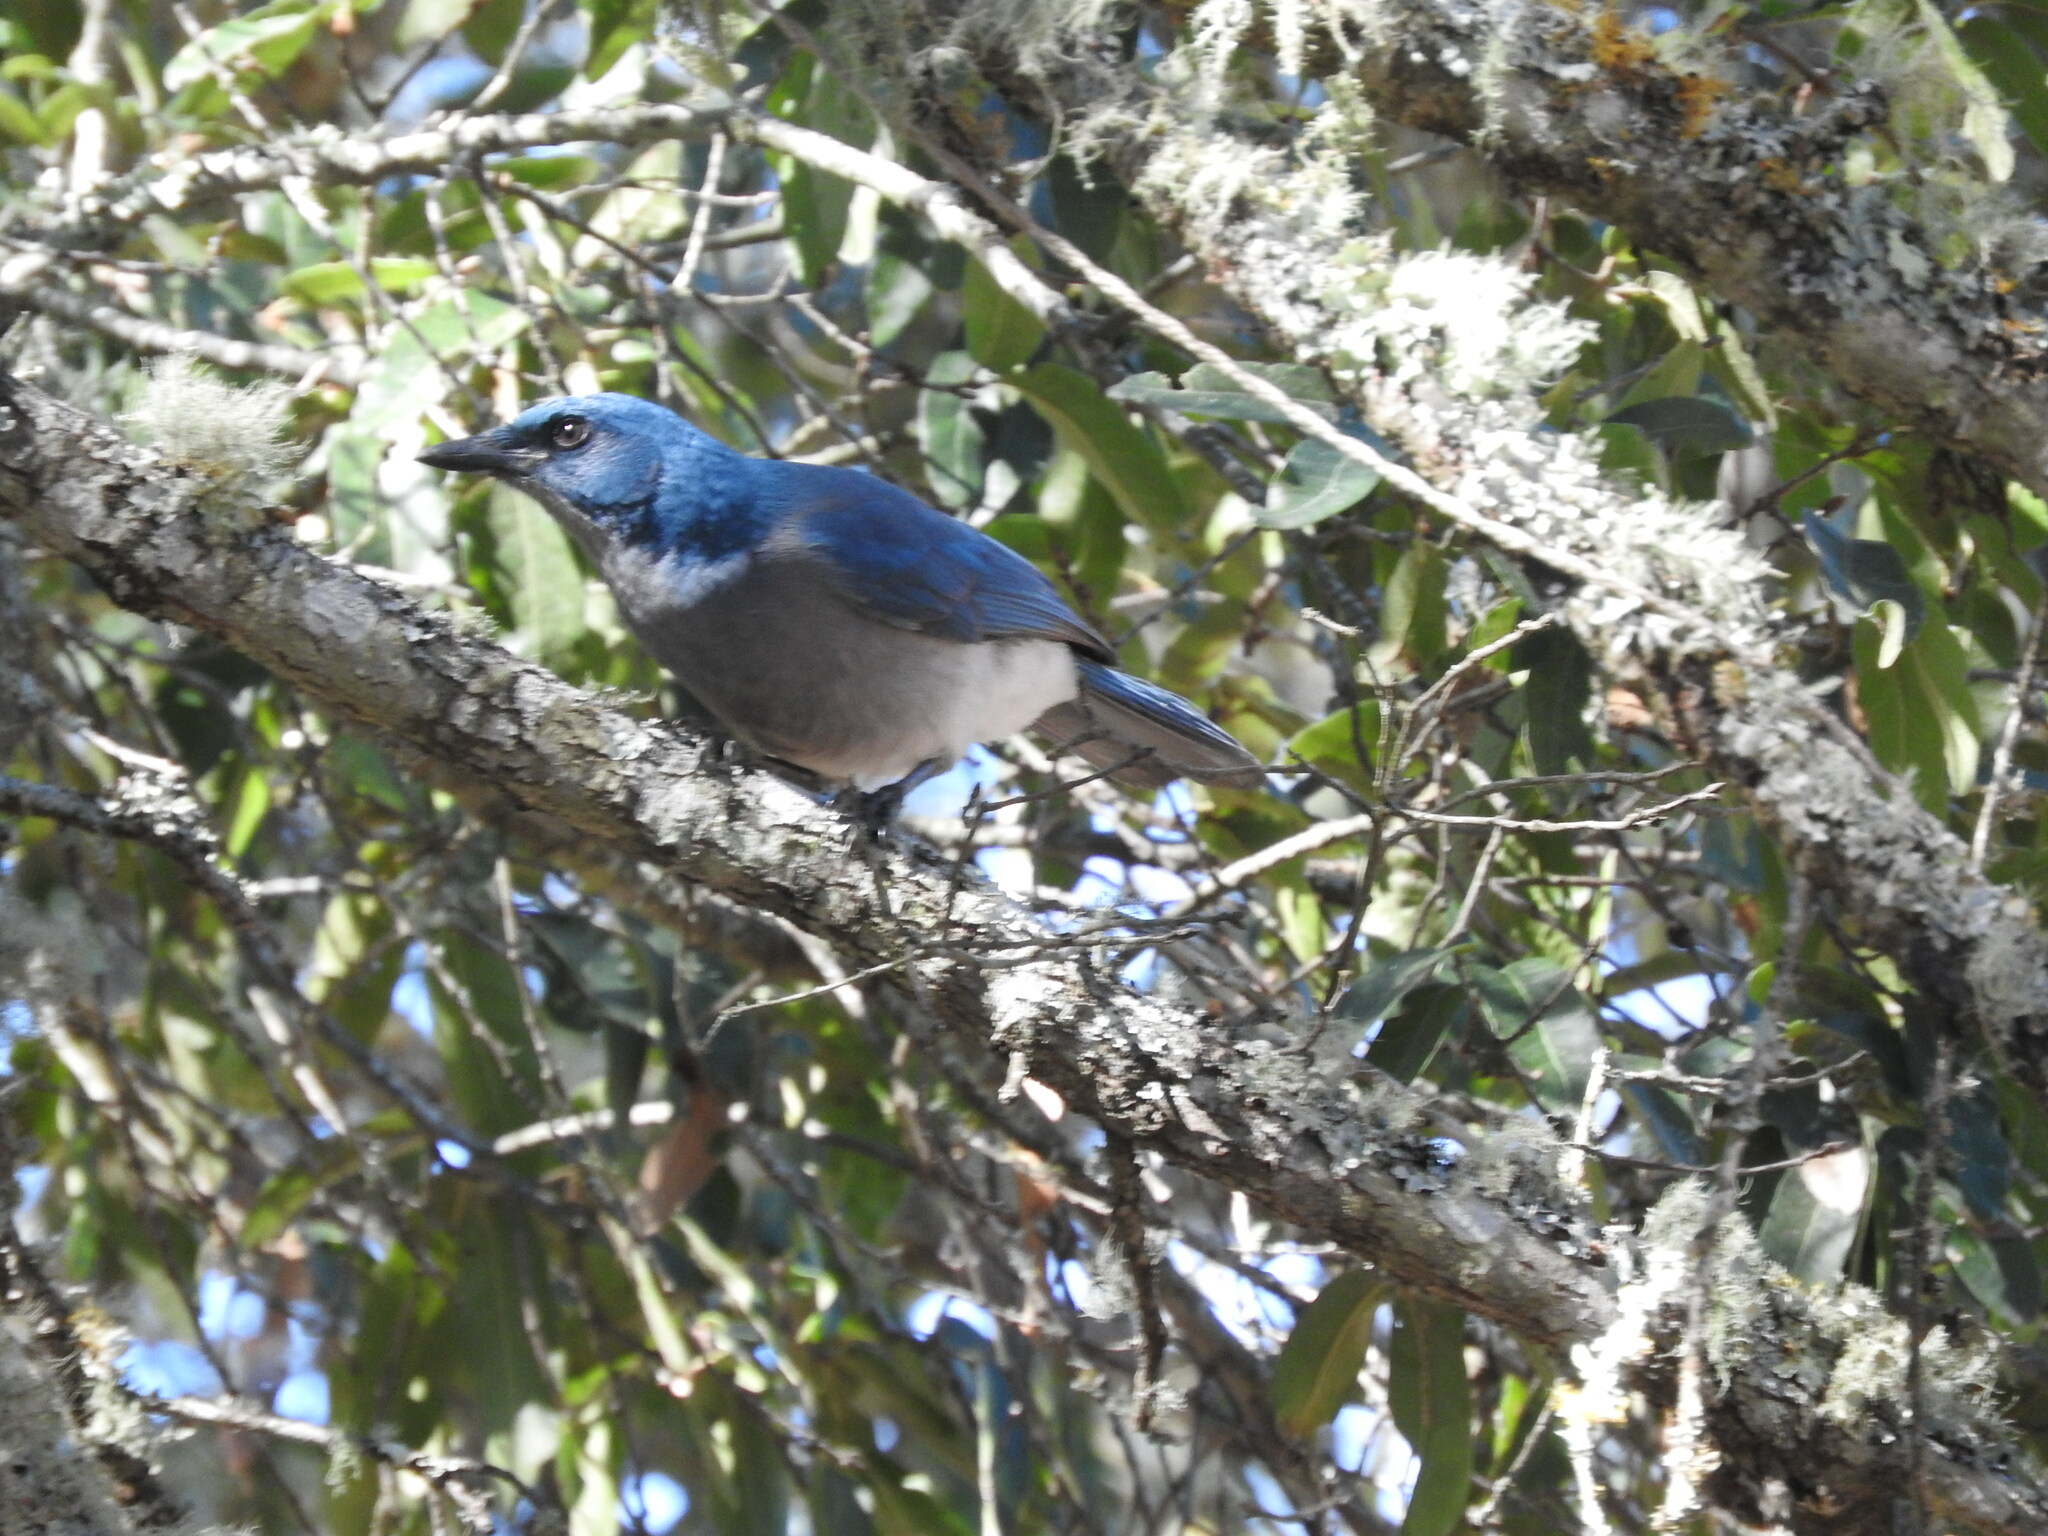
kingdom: Animalia
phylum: Chordata
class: Aves
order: Passeriformes
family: Corvidae
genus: Aphelocoma
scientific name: Aphelocoma wollweberi
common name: Mexican jay
